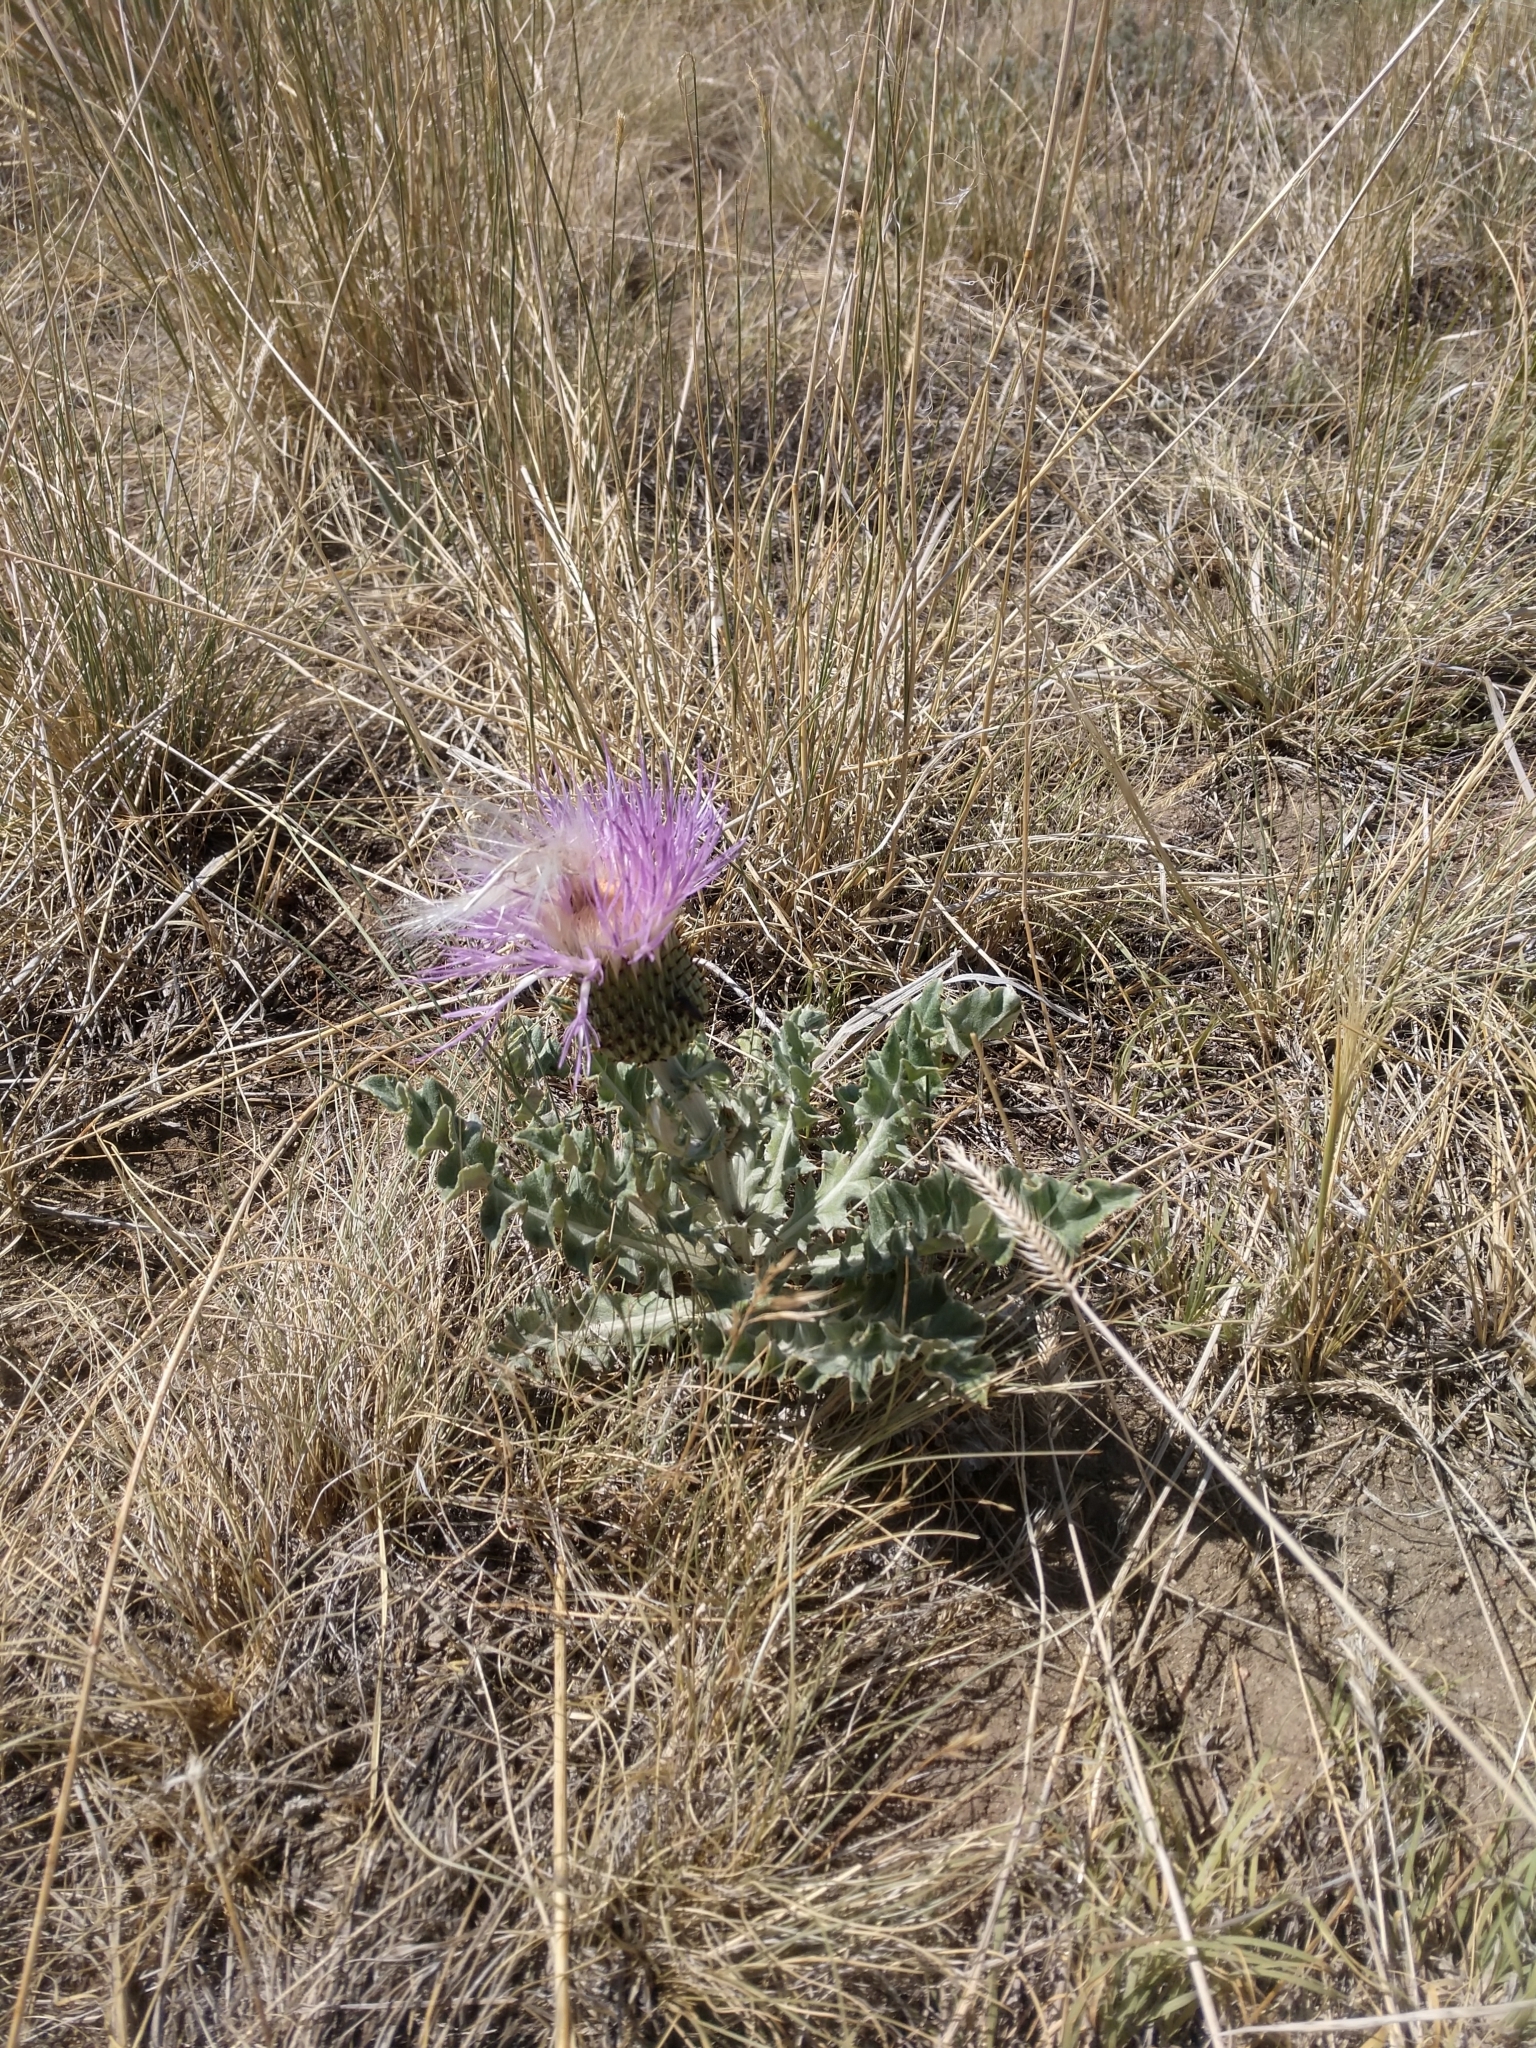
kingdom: Plantae
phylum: Tracheophyta
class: Magnoliopsida
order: Asterales
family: Asteraceae
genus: Cirsium
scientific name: Cirsium undulatum
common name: Pasture thistle
